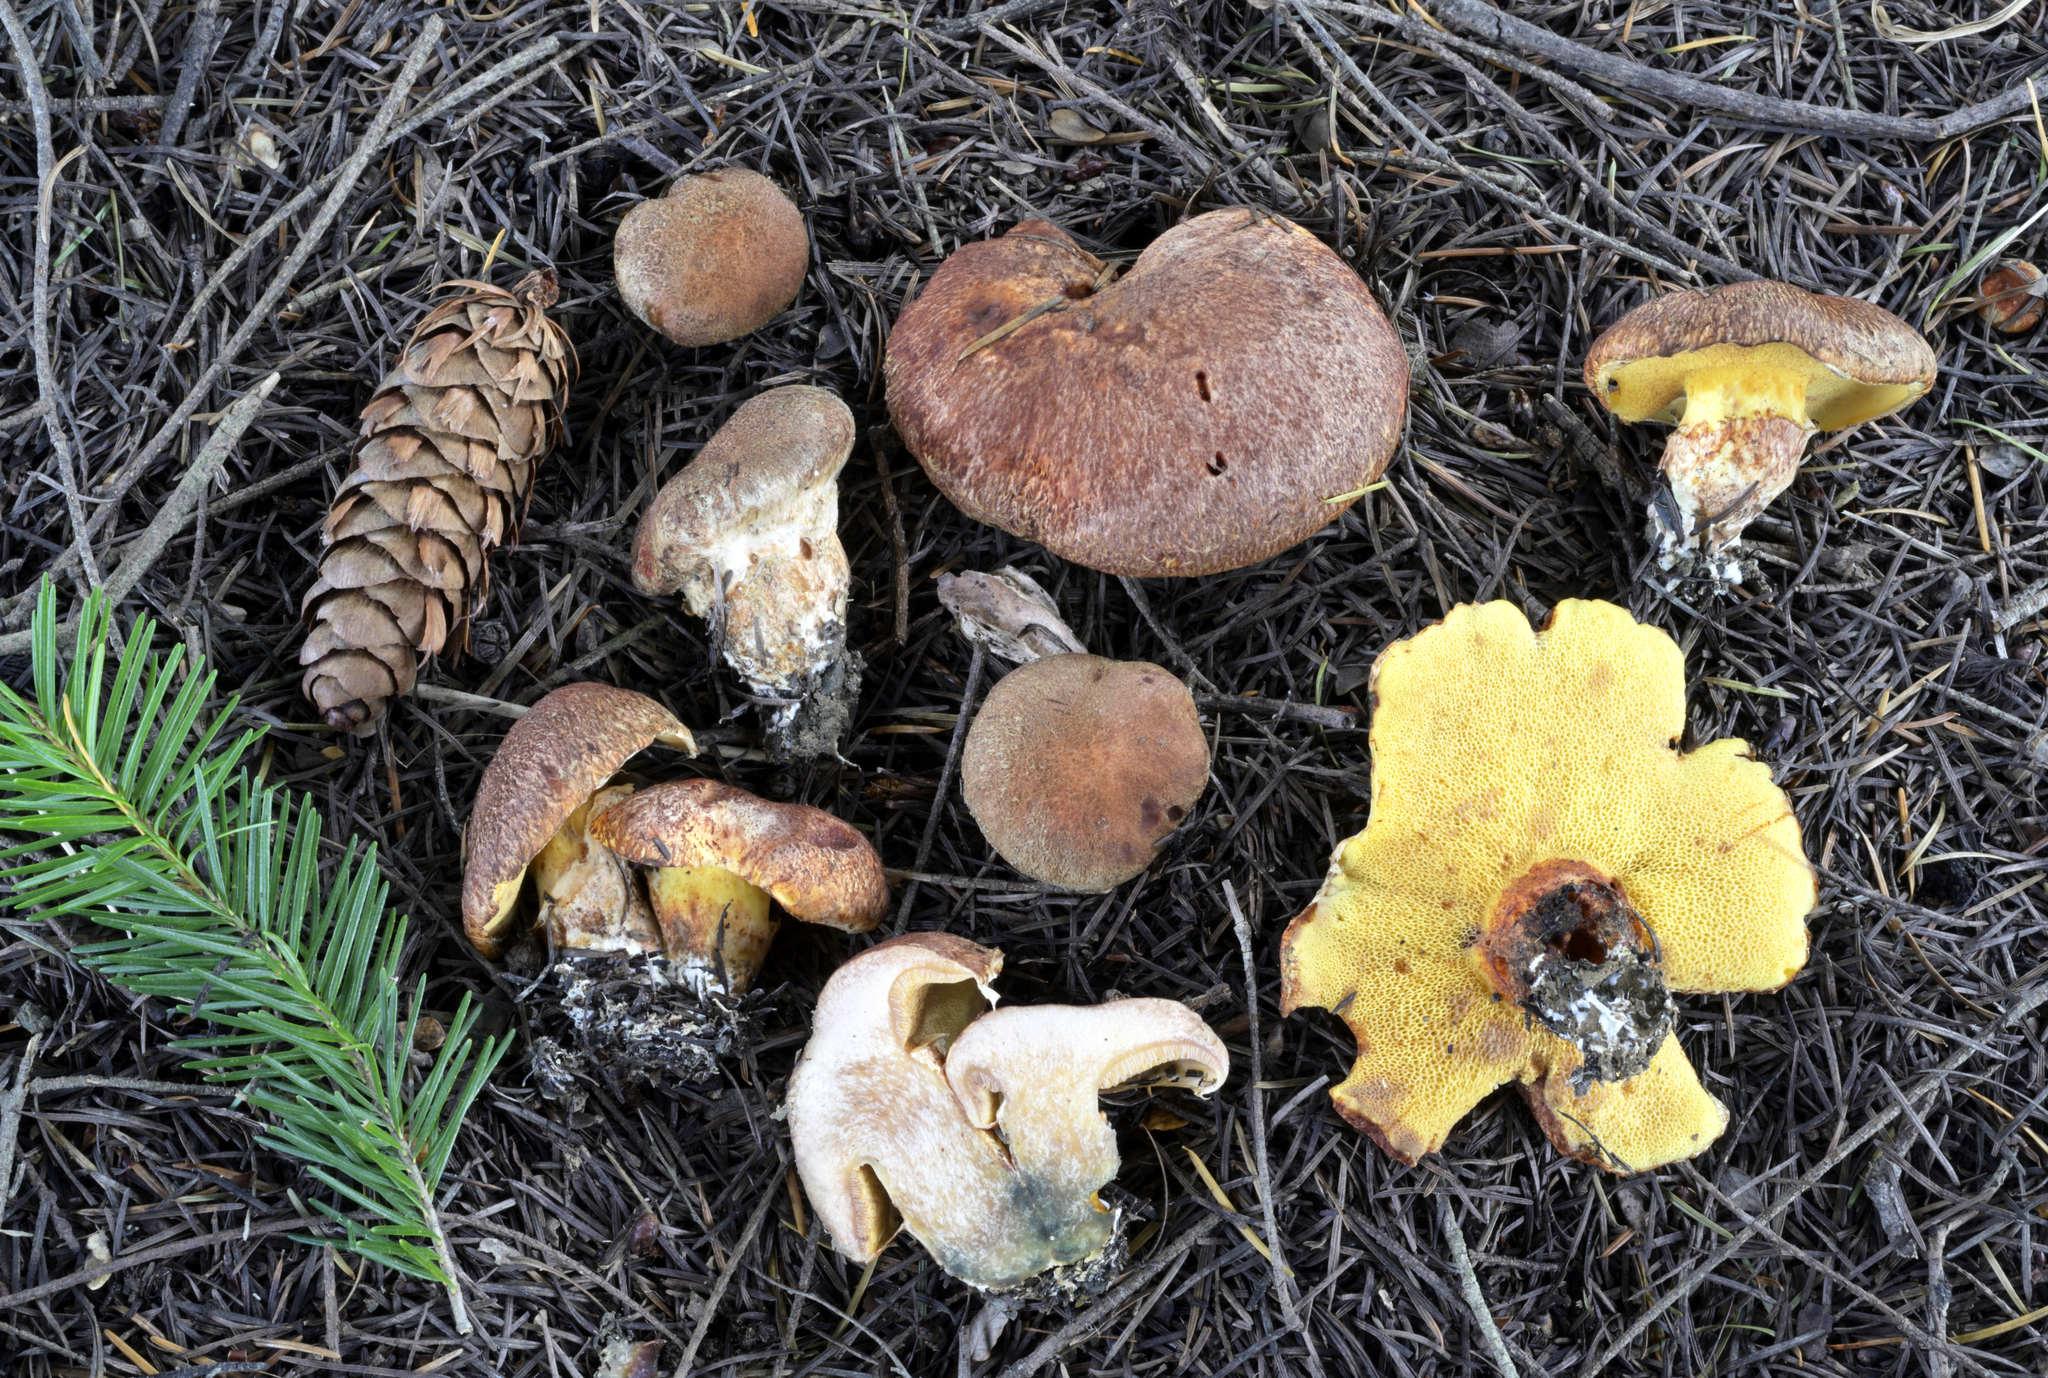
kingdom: Fungi
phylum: Basidiomycota
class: Agaricomycetes
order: Boletales
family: Suillaceae
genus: Suillus
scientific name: Suillus lakei
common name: Western painted suillus
